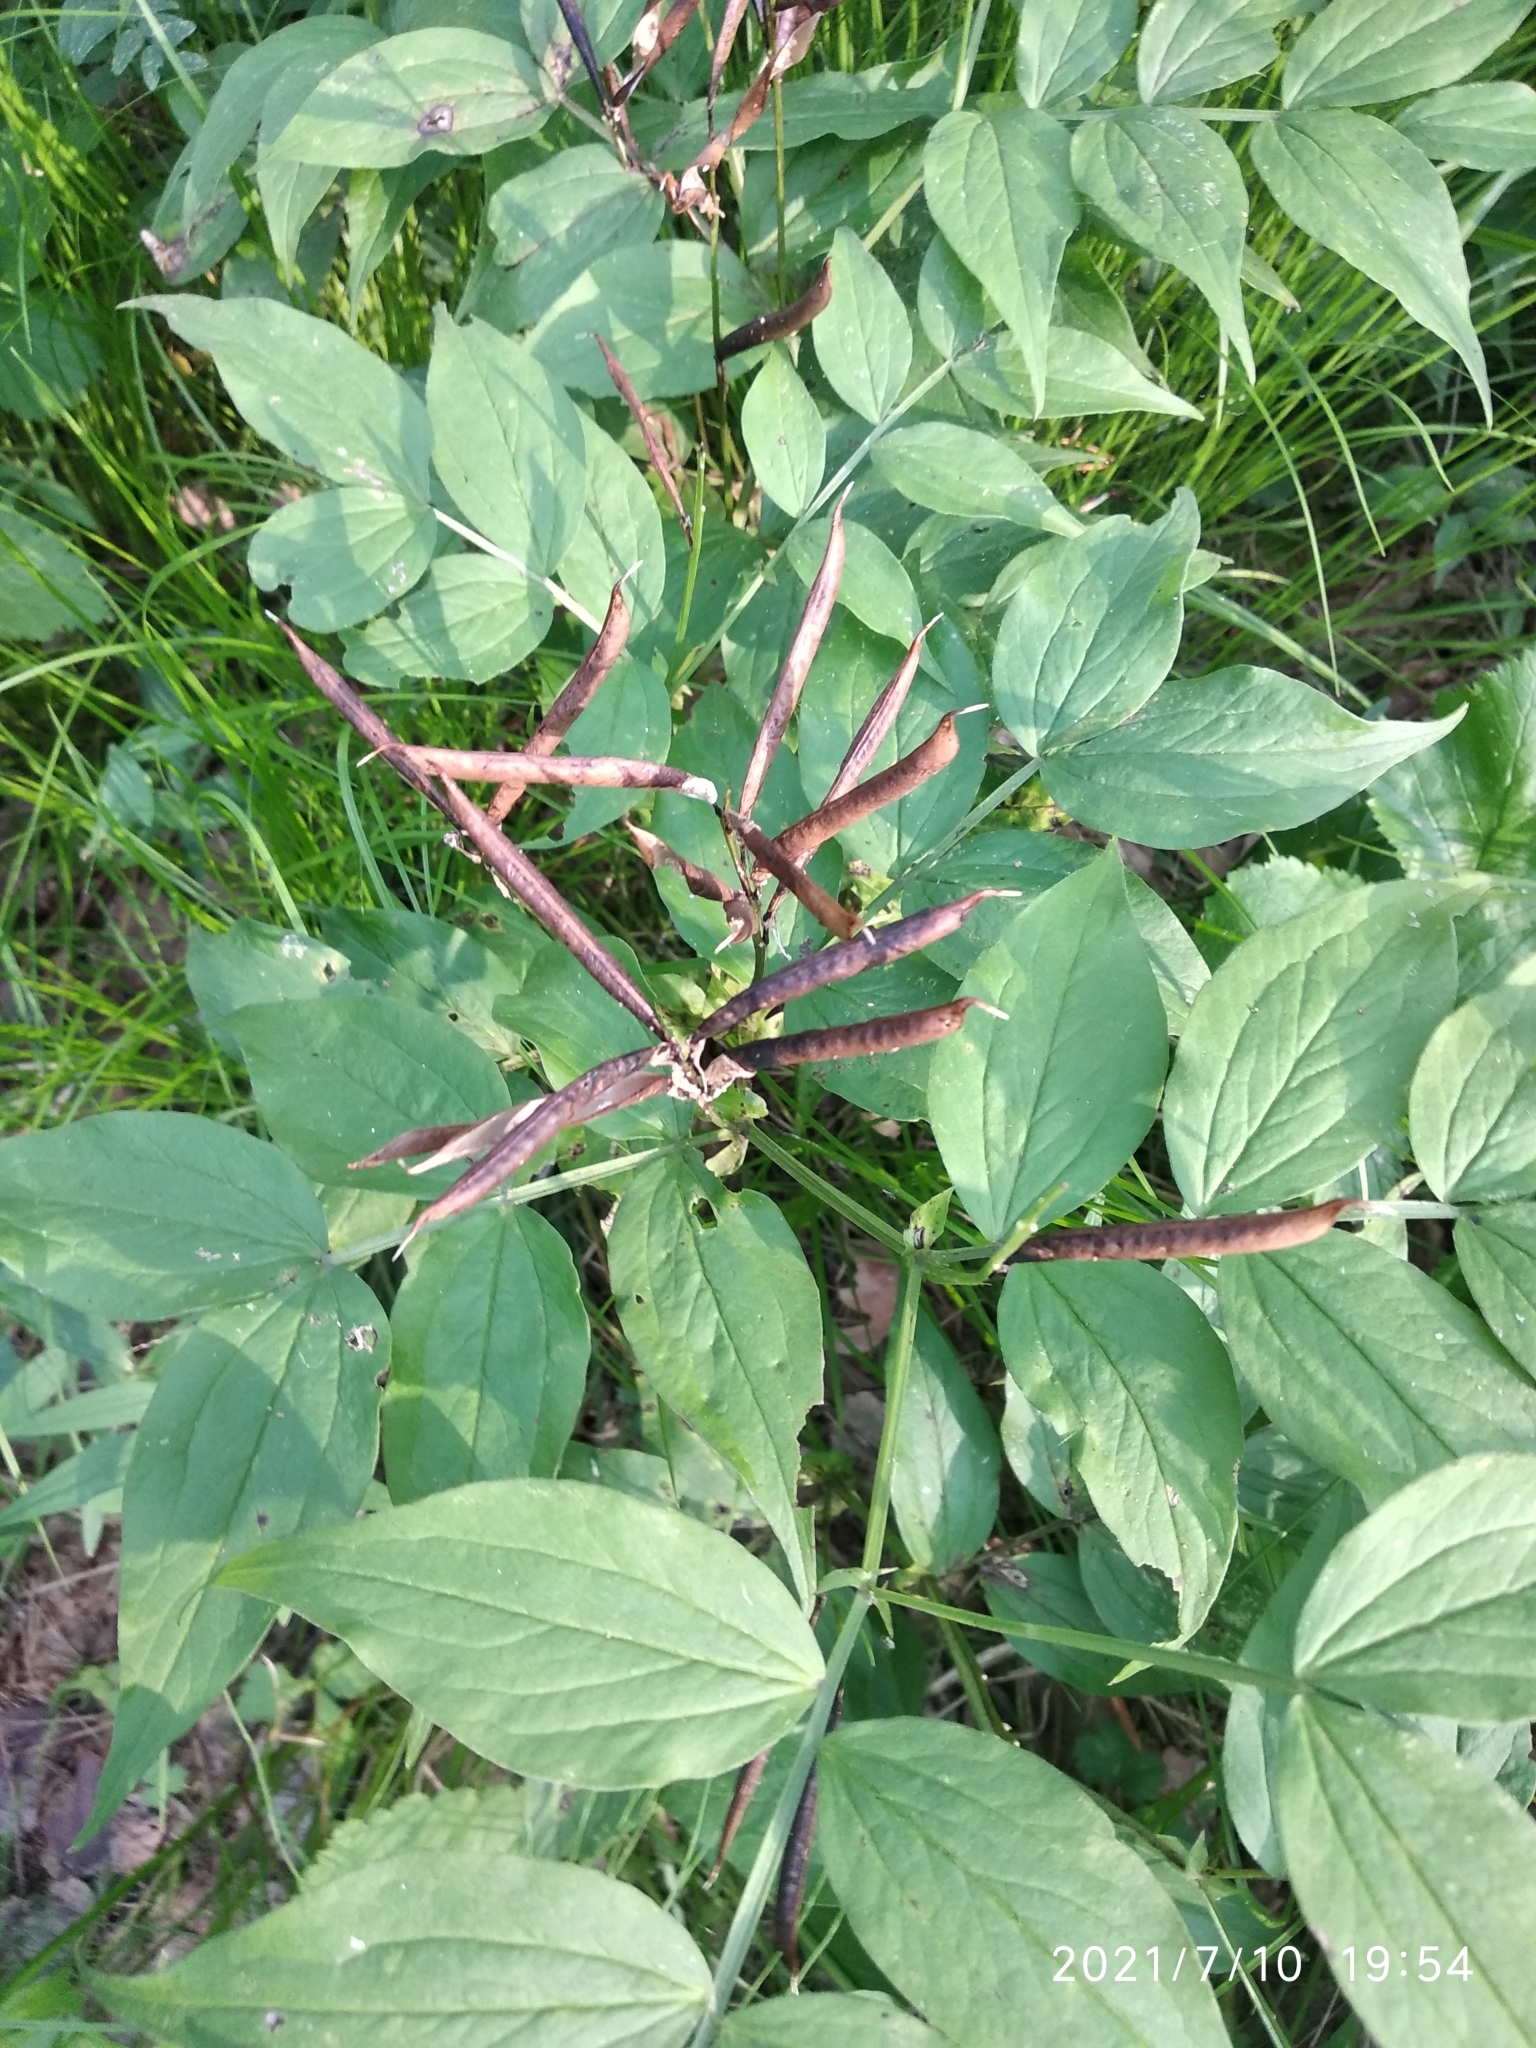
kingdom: Plantae
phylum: Tracheophyta
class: Magnoliopsida
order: Fabales
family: Fabaceae
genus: Lathyrus
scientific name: Lathyrus vernus
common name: Spring pea
